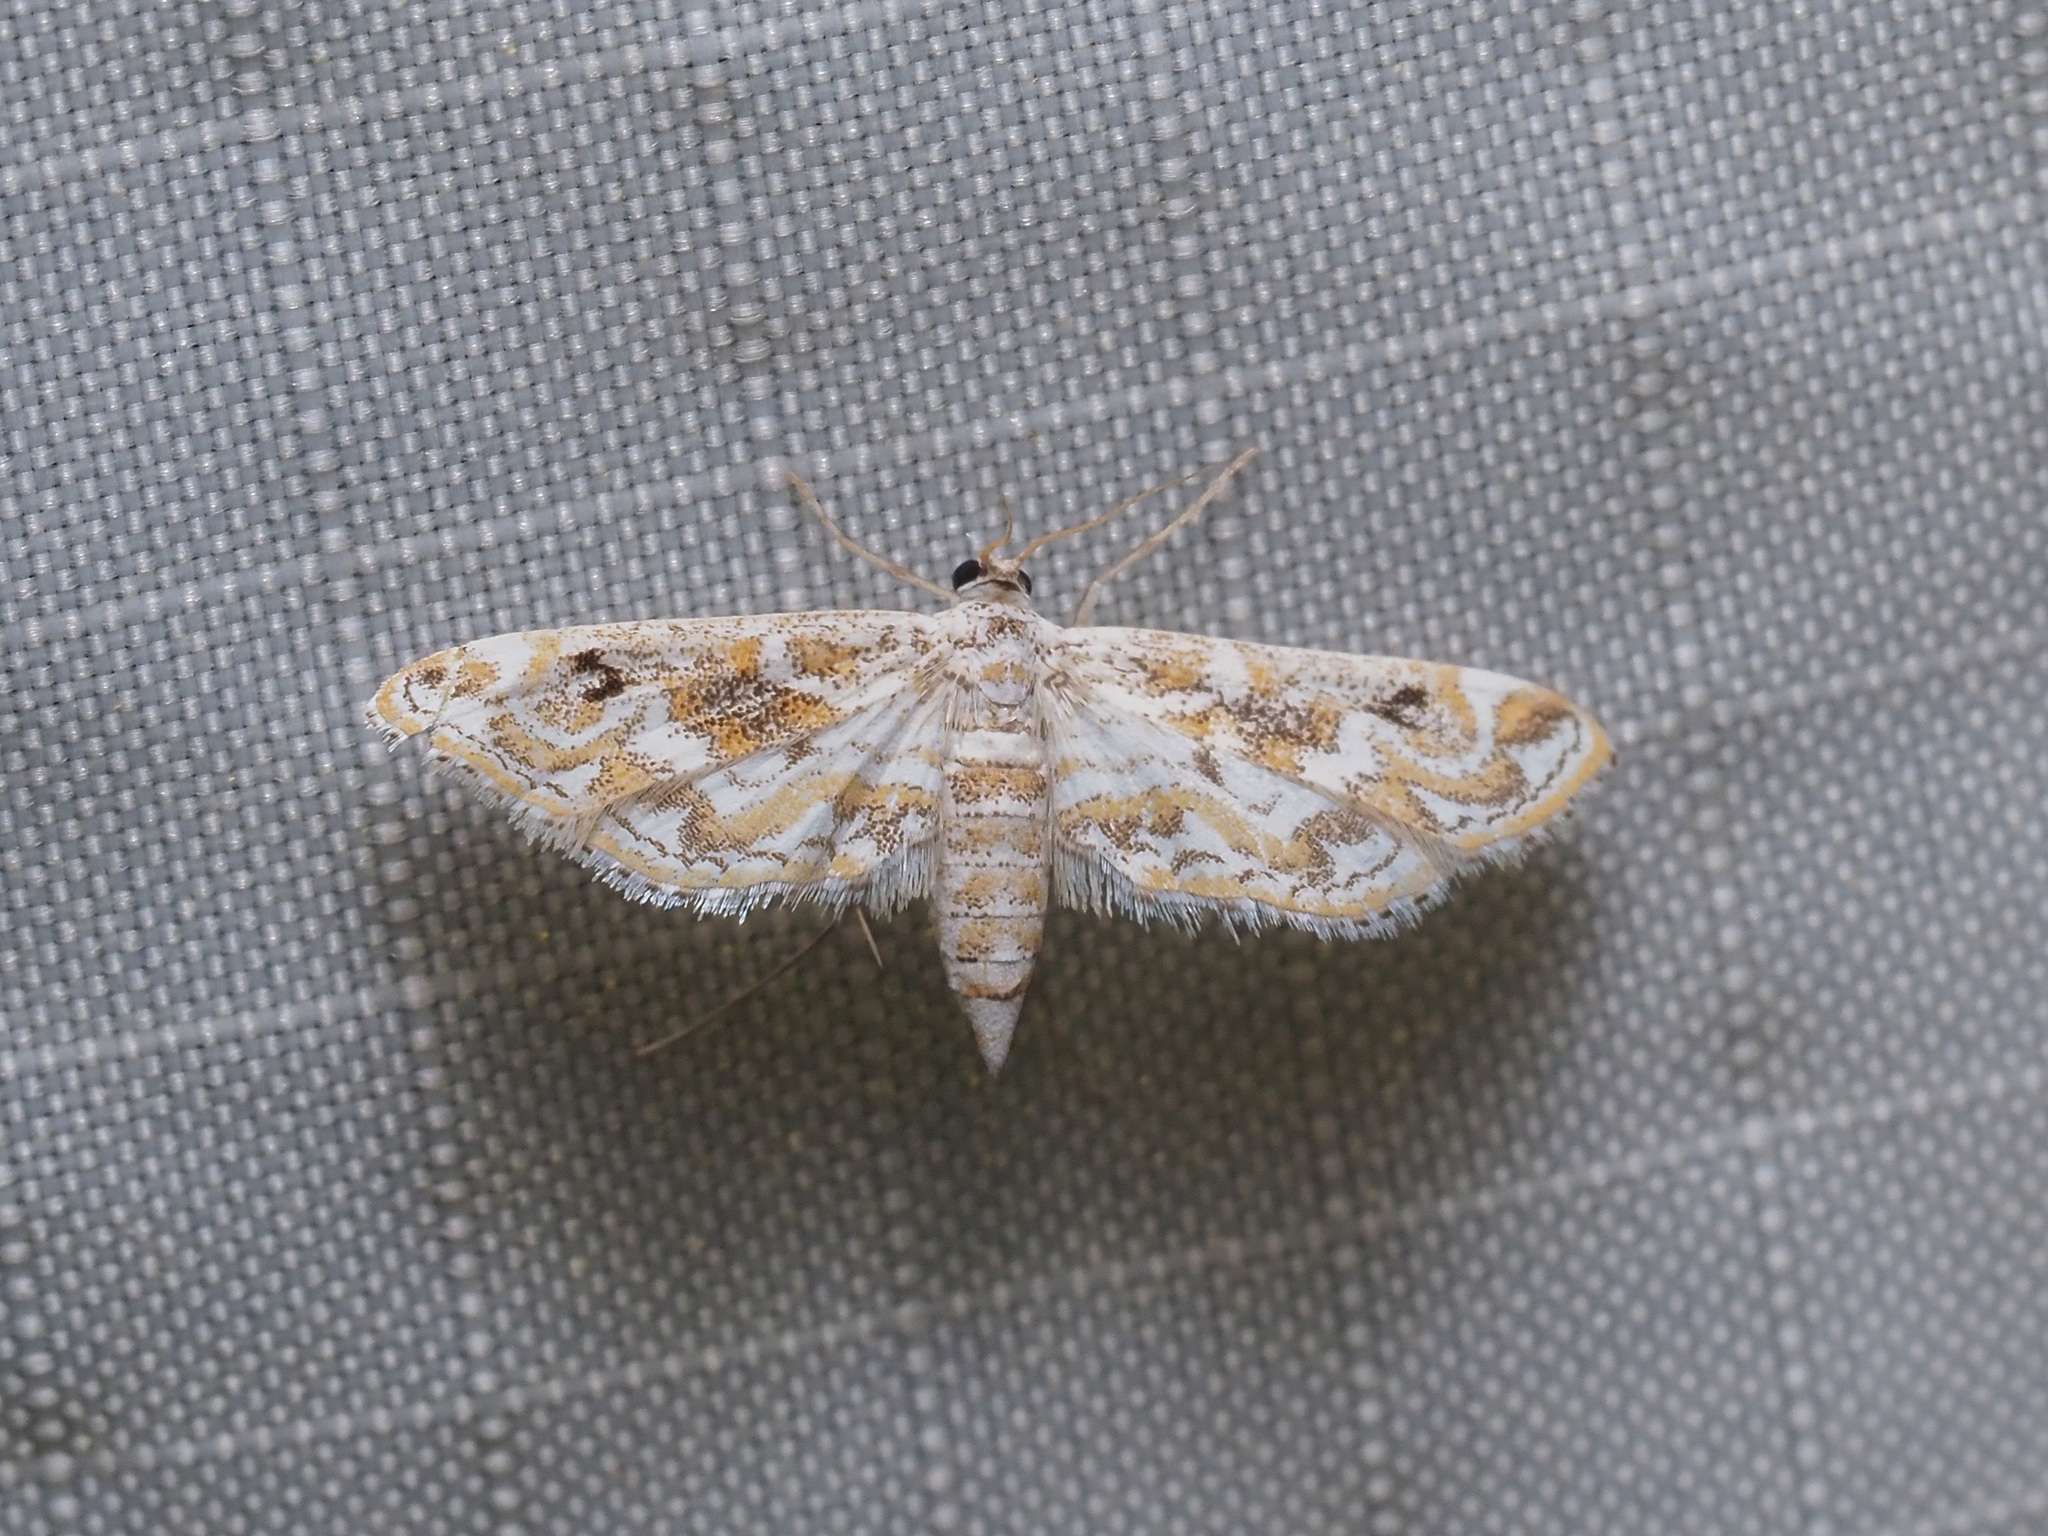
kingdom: Animalia
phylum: Arthropoda
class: Insecta
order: Lepidoptera
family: Crambidae
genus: Parapoynx
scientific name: Parapoynx diminutalis
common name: Hydrilla leafcutter
